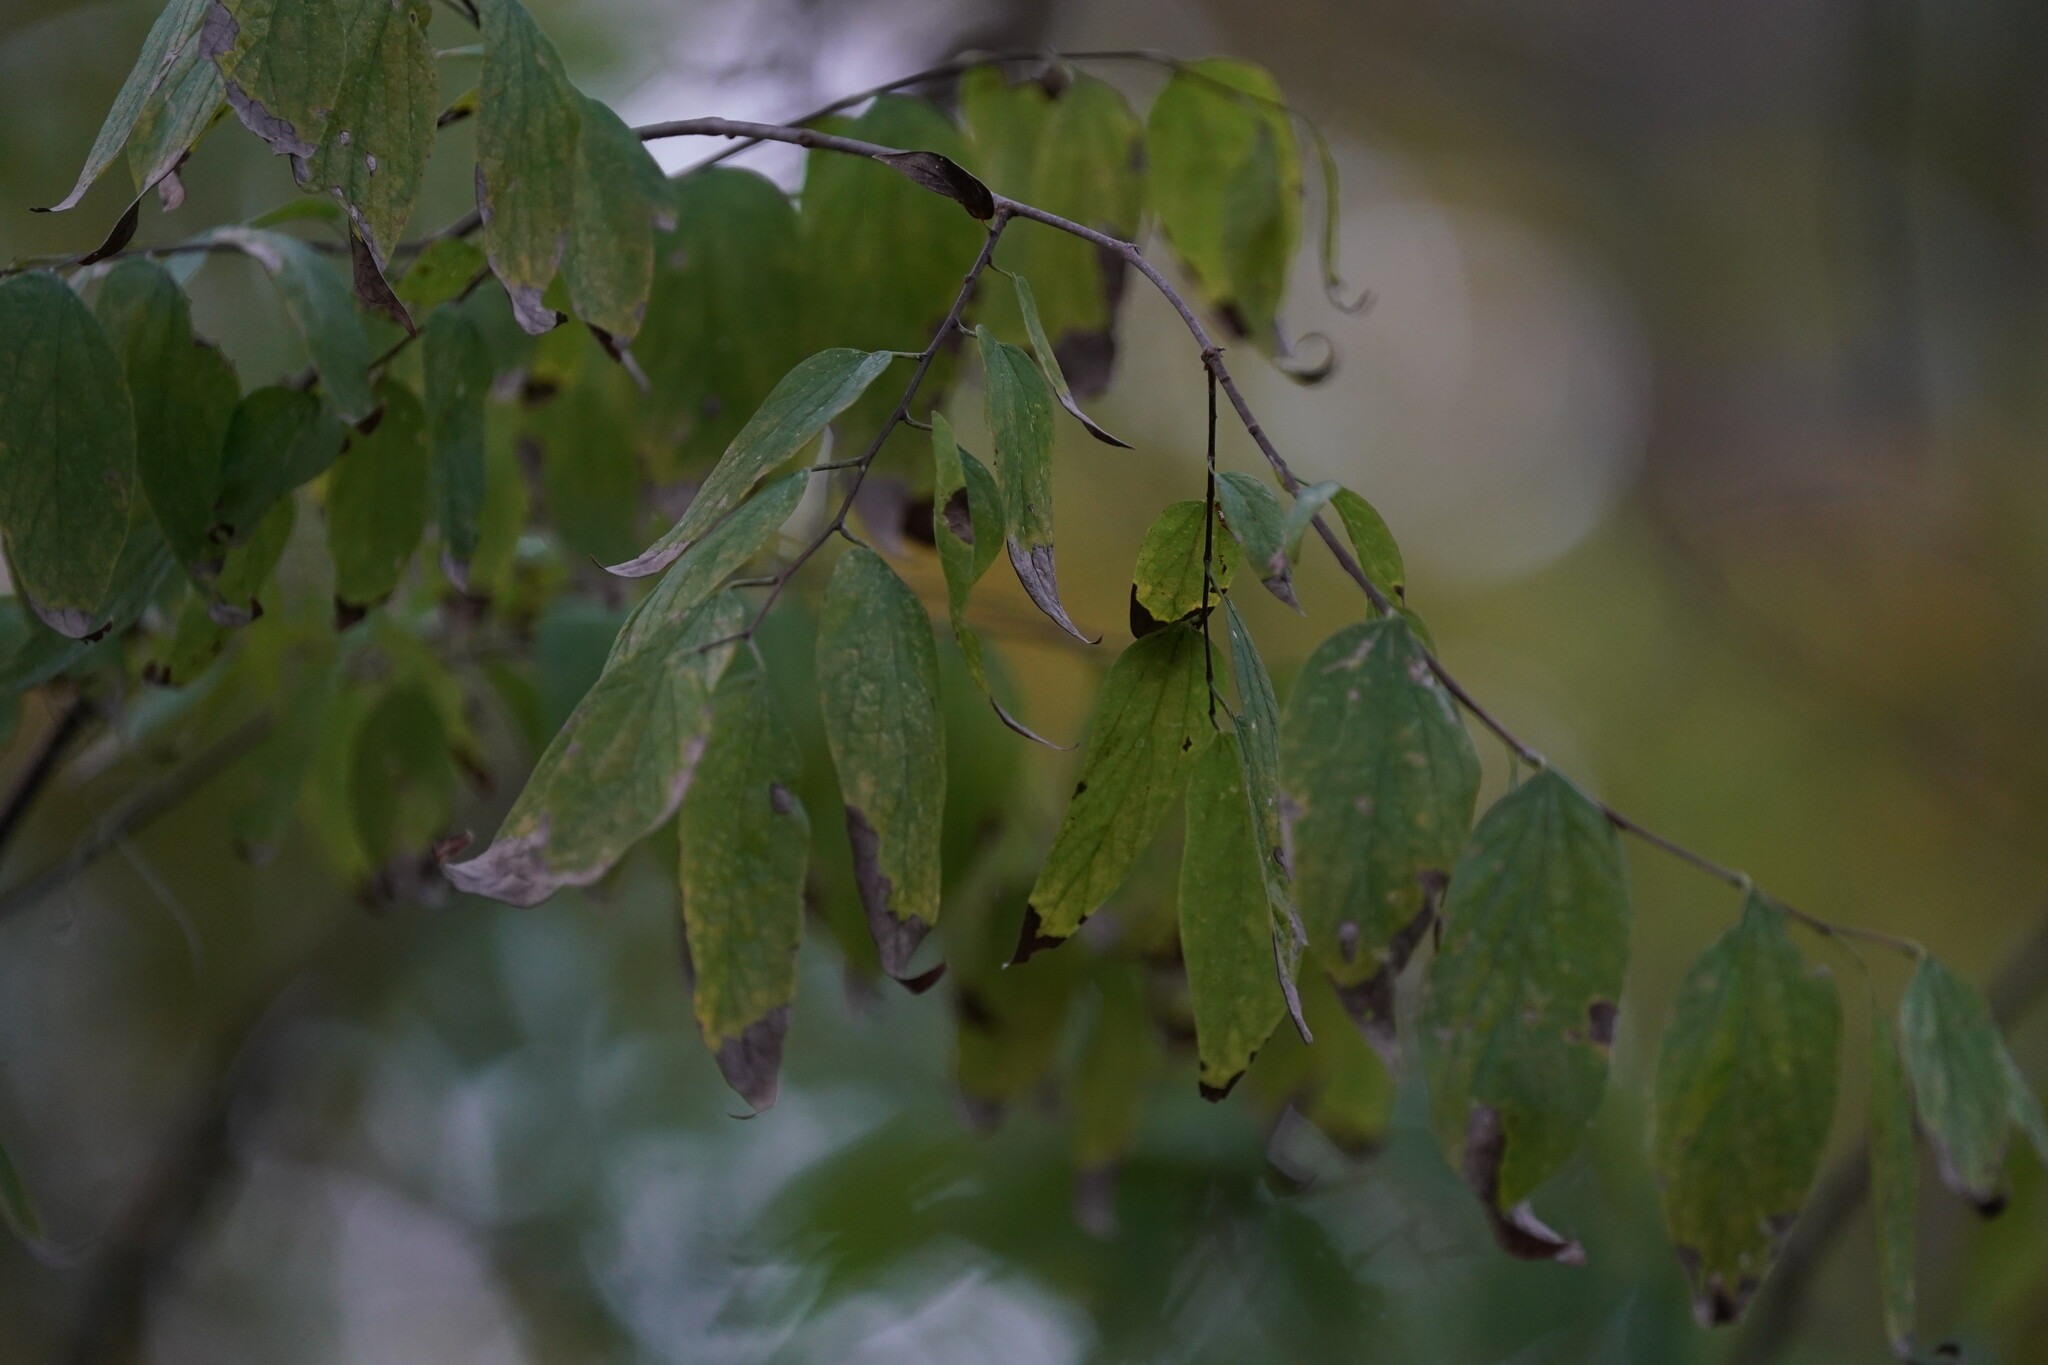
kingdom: Plantae
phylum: Tracheophyta
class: Magnoliopsida
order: Rosales
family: Cannabaceae
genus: Celtis
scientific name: Celtis laevigata
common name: Sugarberry
